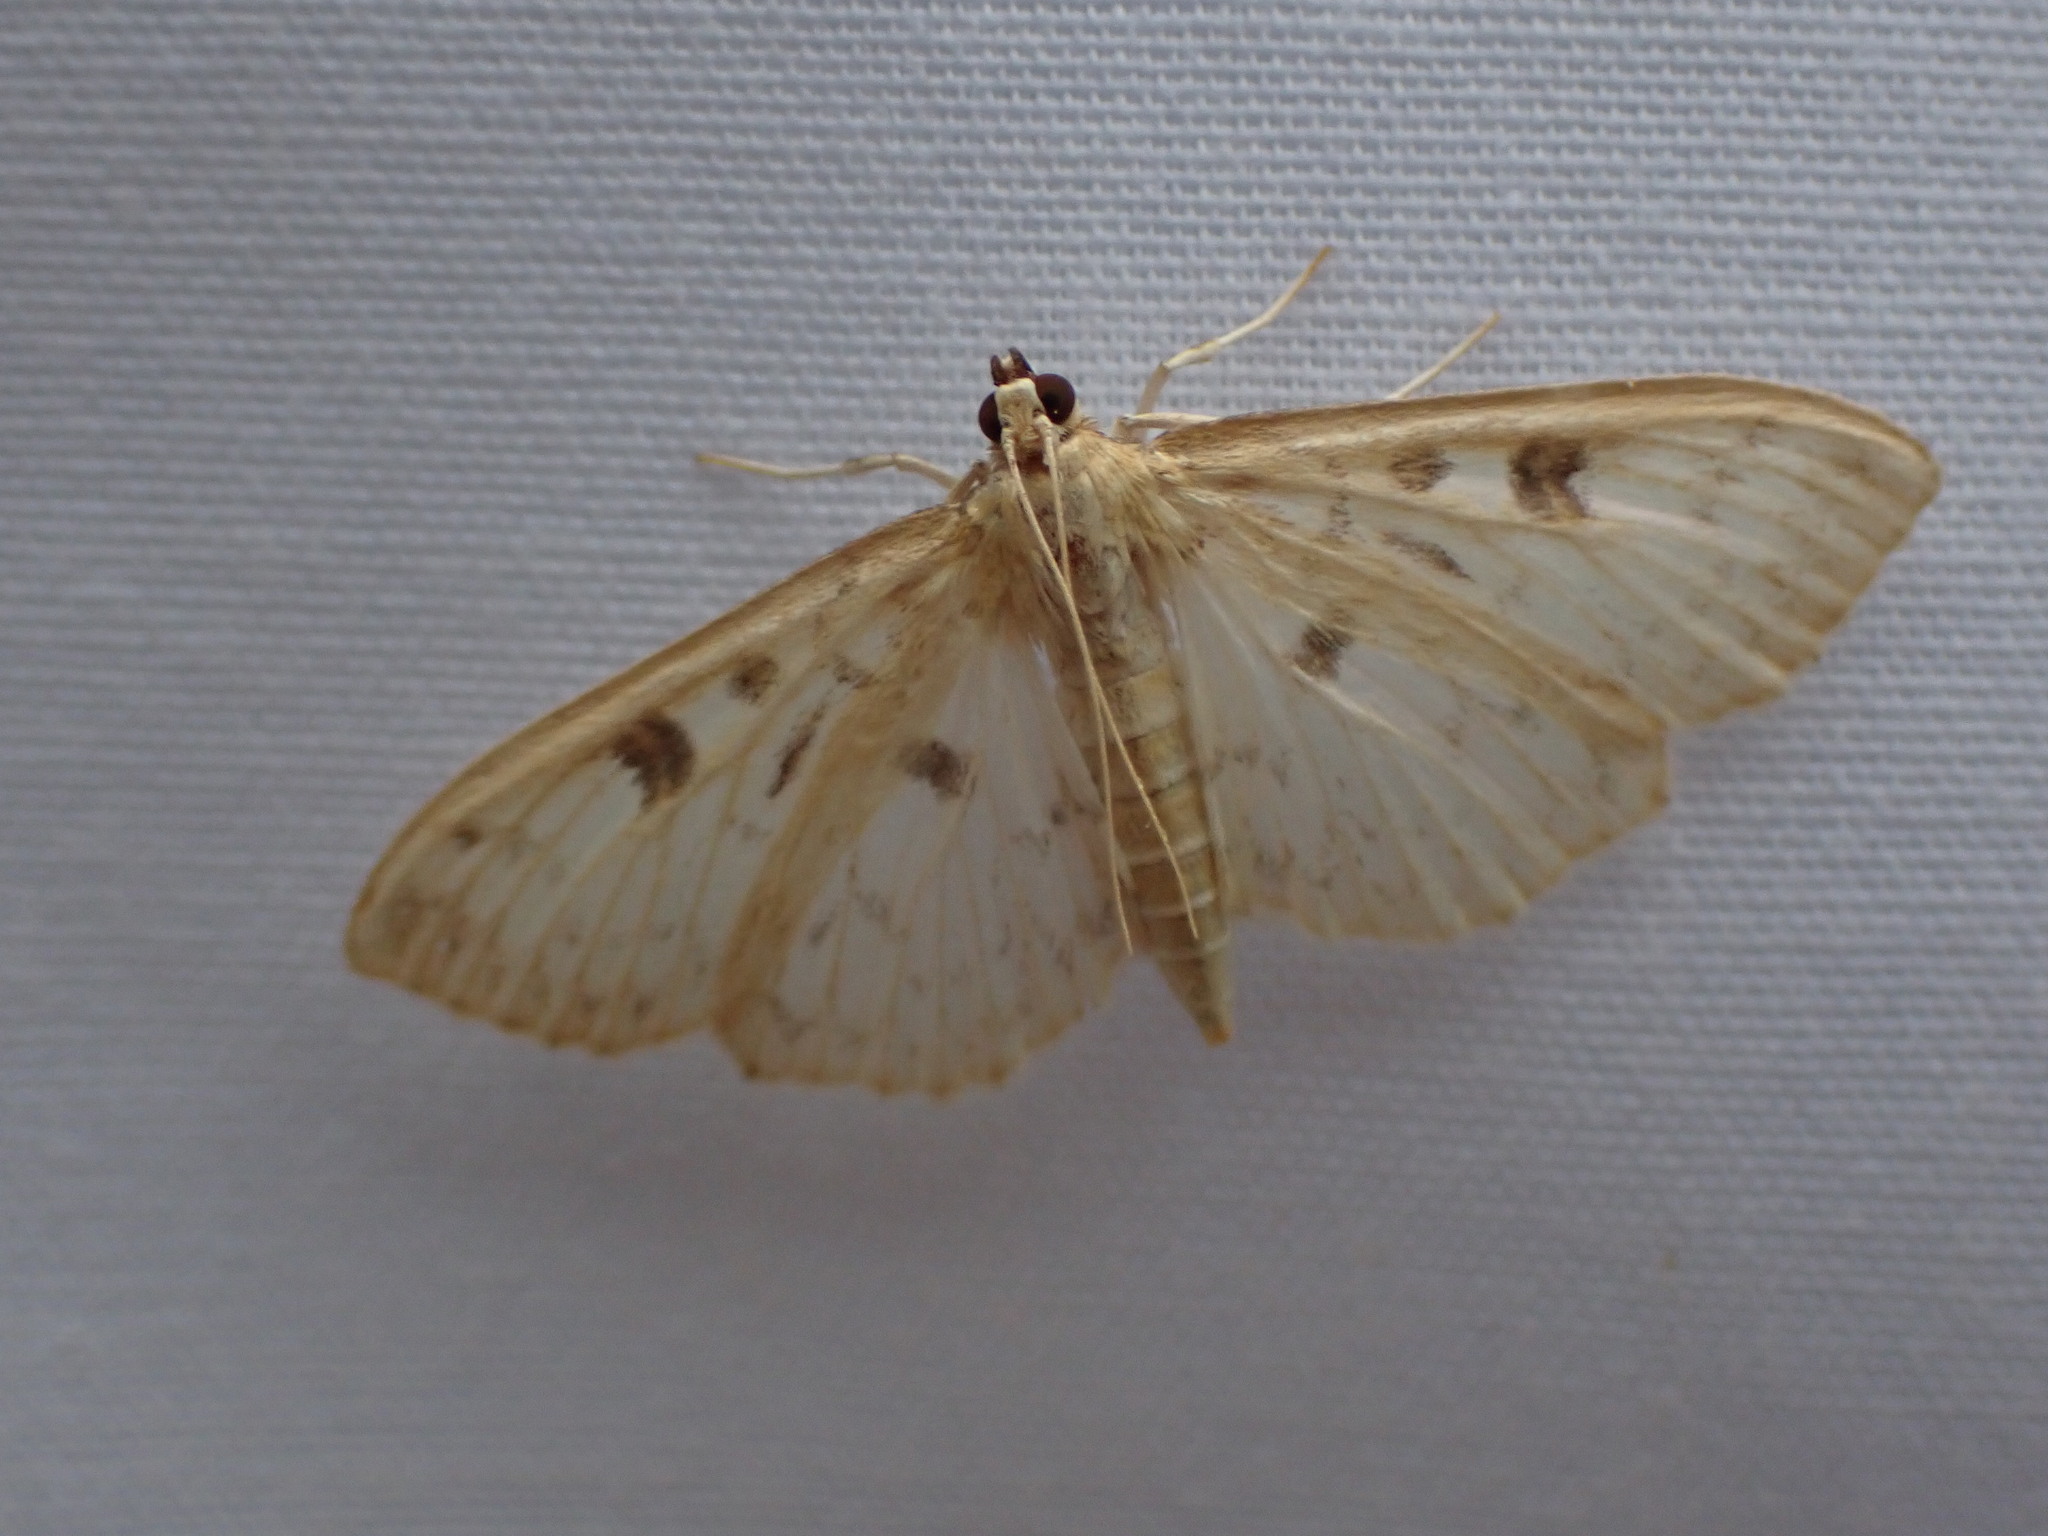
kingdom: Animalia
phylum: Arthropoda
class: Insecta
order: Lepidoptera
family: Crambidae
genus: Herpetogramma
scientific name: Herpetogramma aquilonalis
